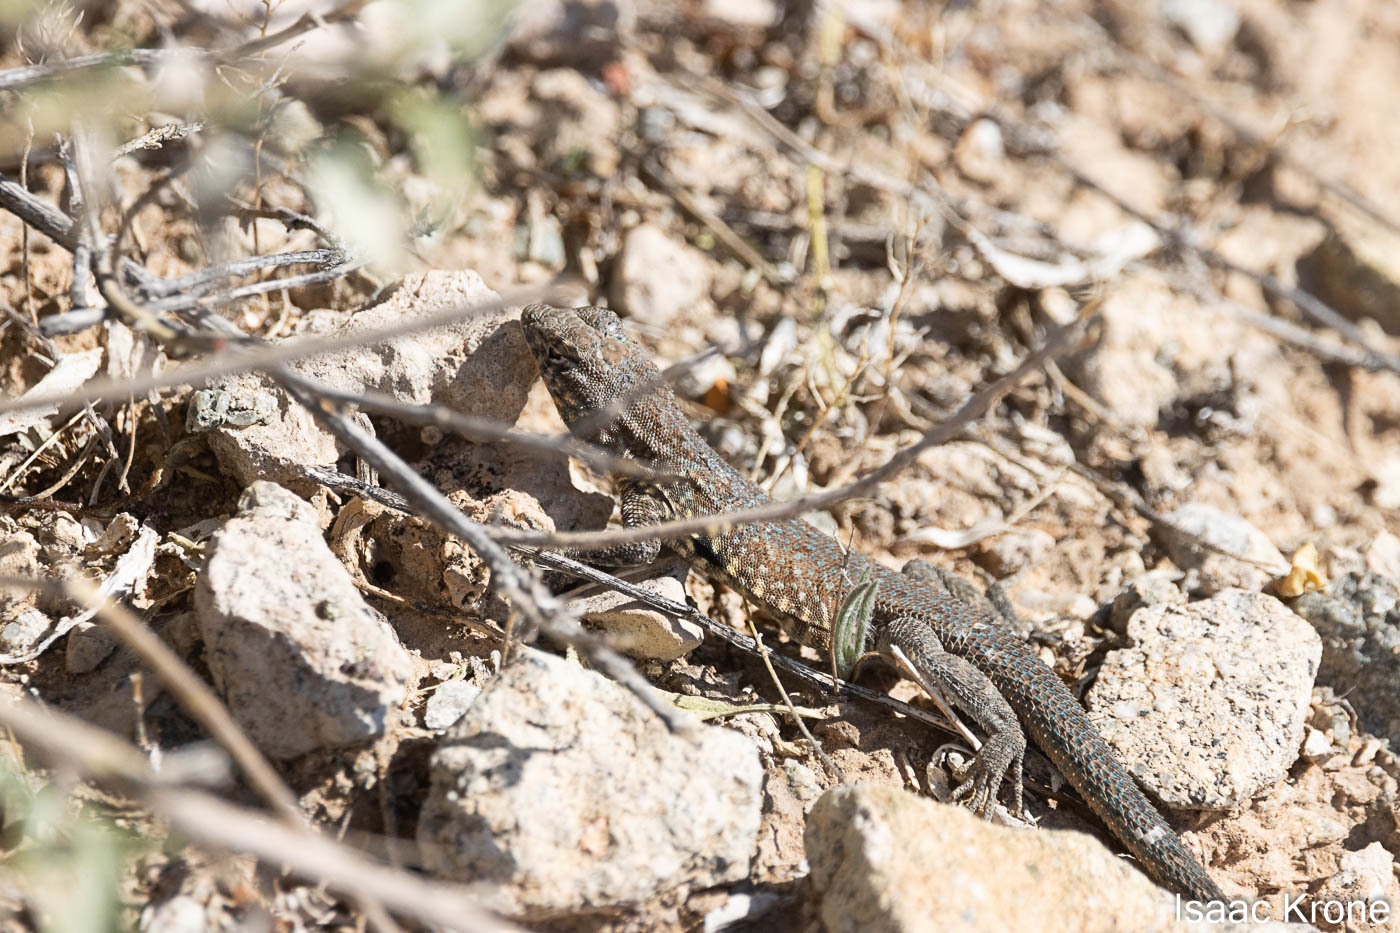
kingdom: Animalia
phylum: Chordata
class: Squamata
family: Phrynosomatidae
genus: Uta
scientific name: Uta stansburiana
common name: Side-blotched lizard
